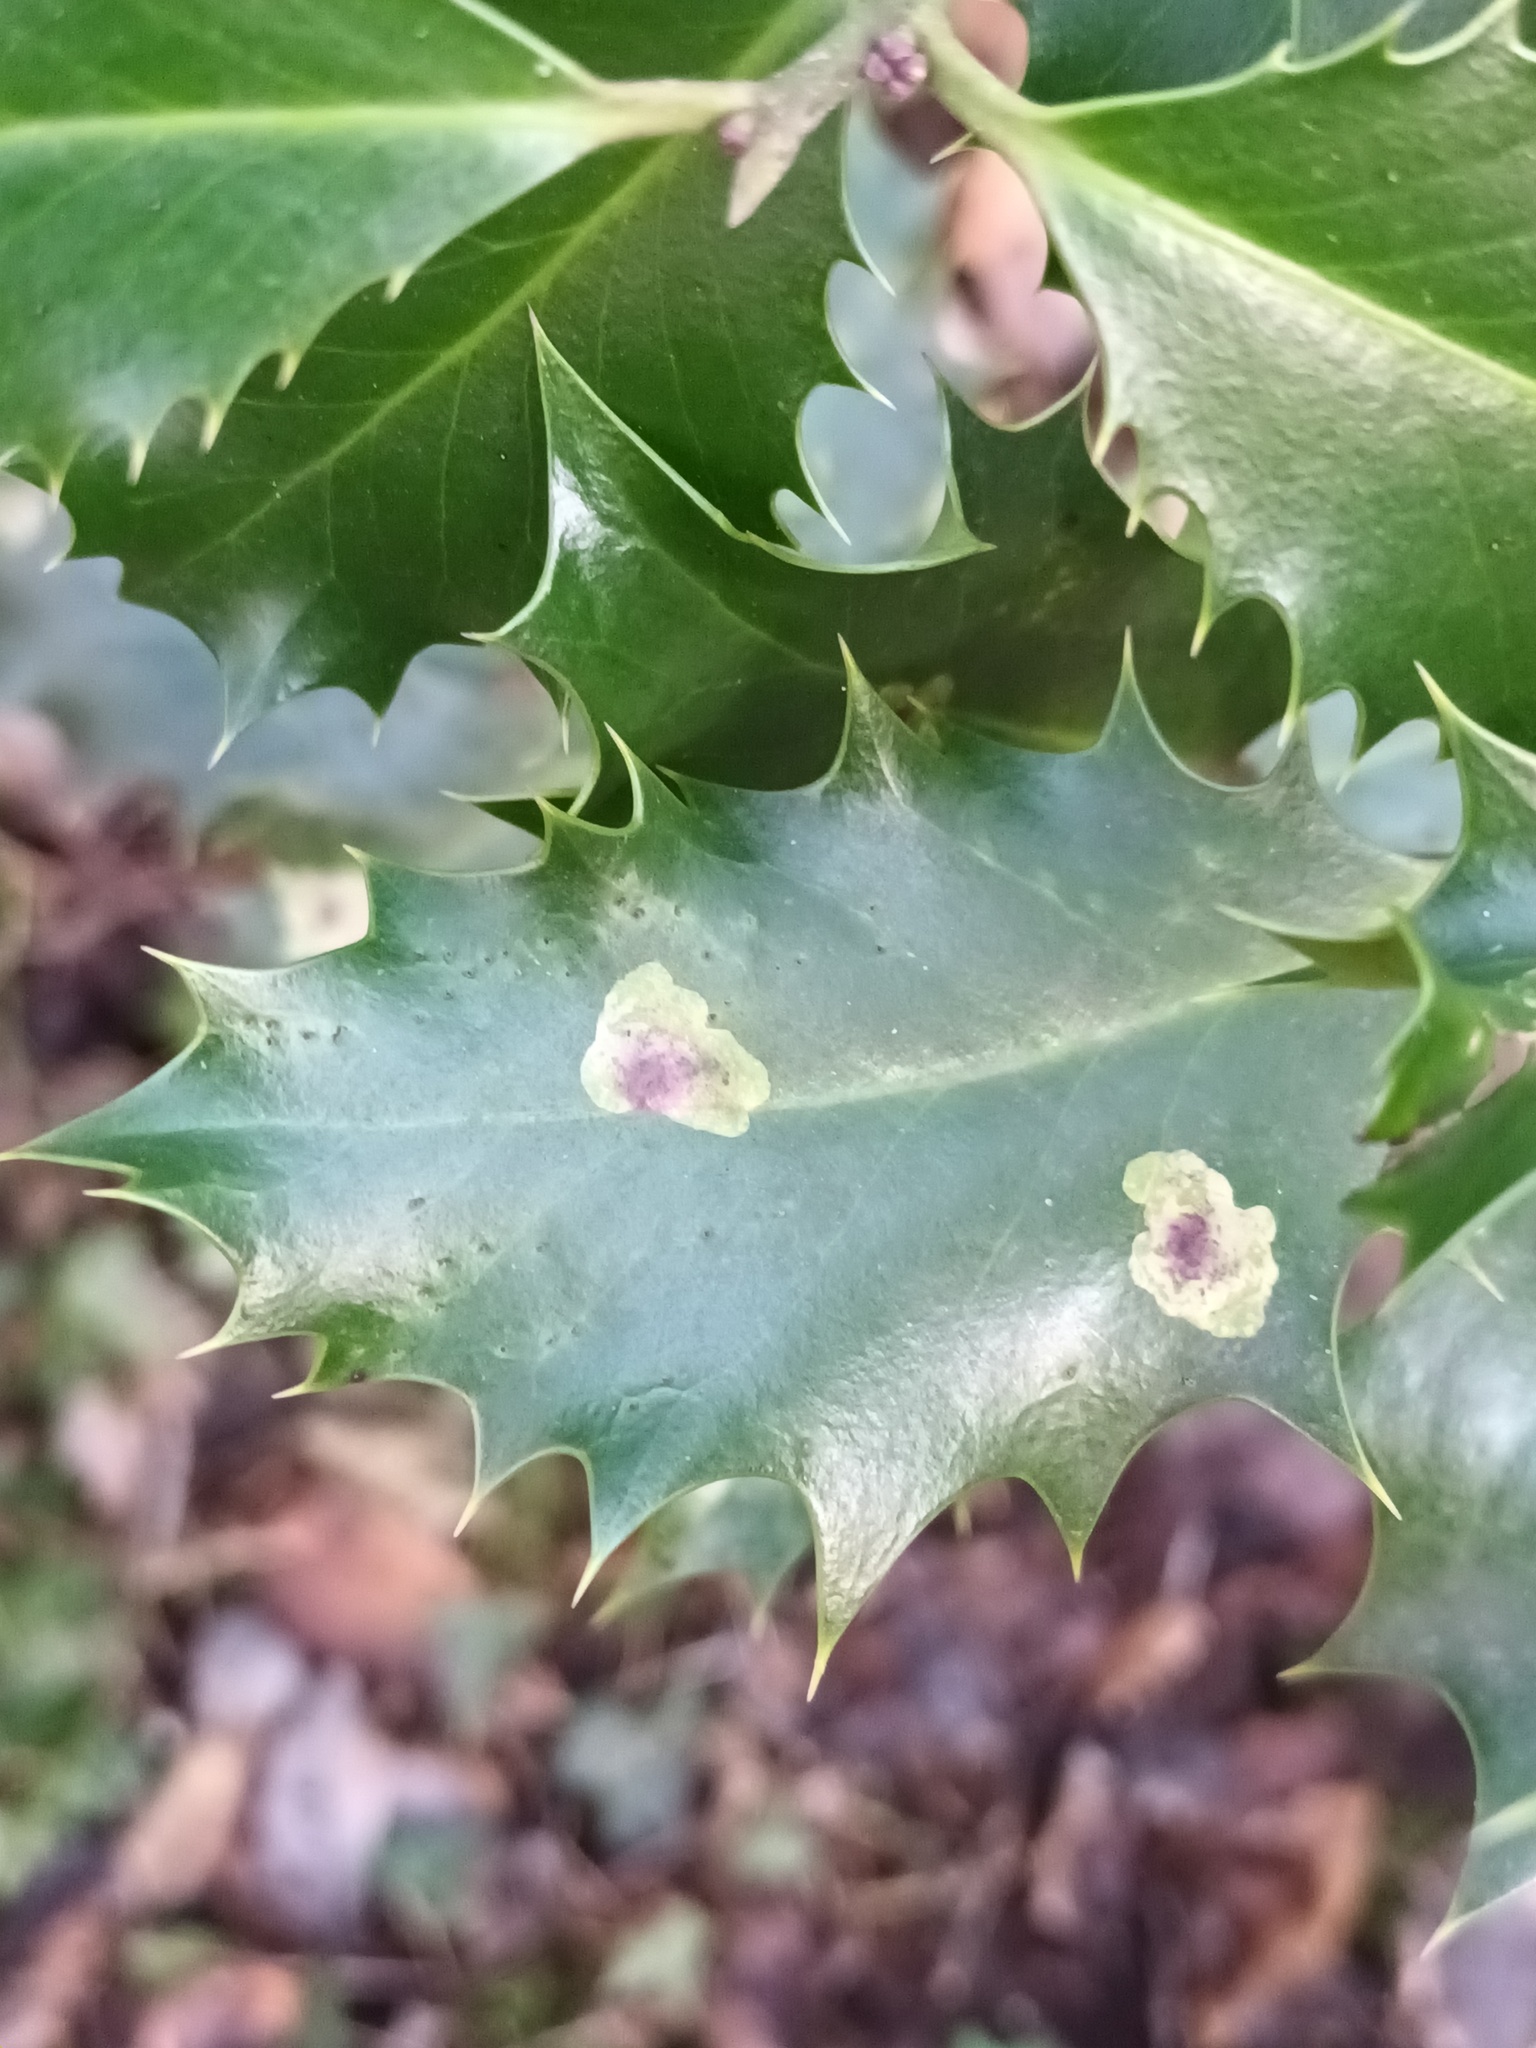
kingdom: Animalia
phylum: Arthropoda
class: Insecta
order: Diptera
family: Agromyzidae
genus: Phytomyza
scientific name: Phytomyza ilicis
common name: Holly leafminer
